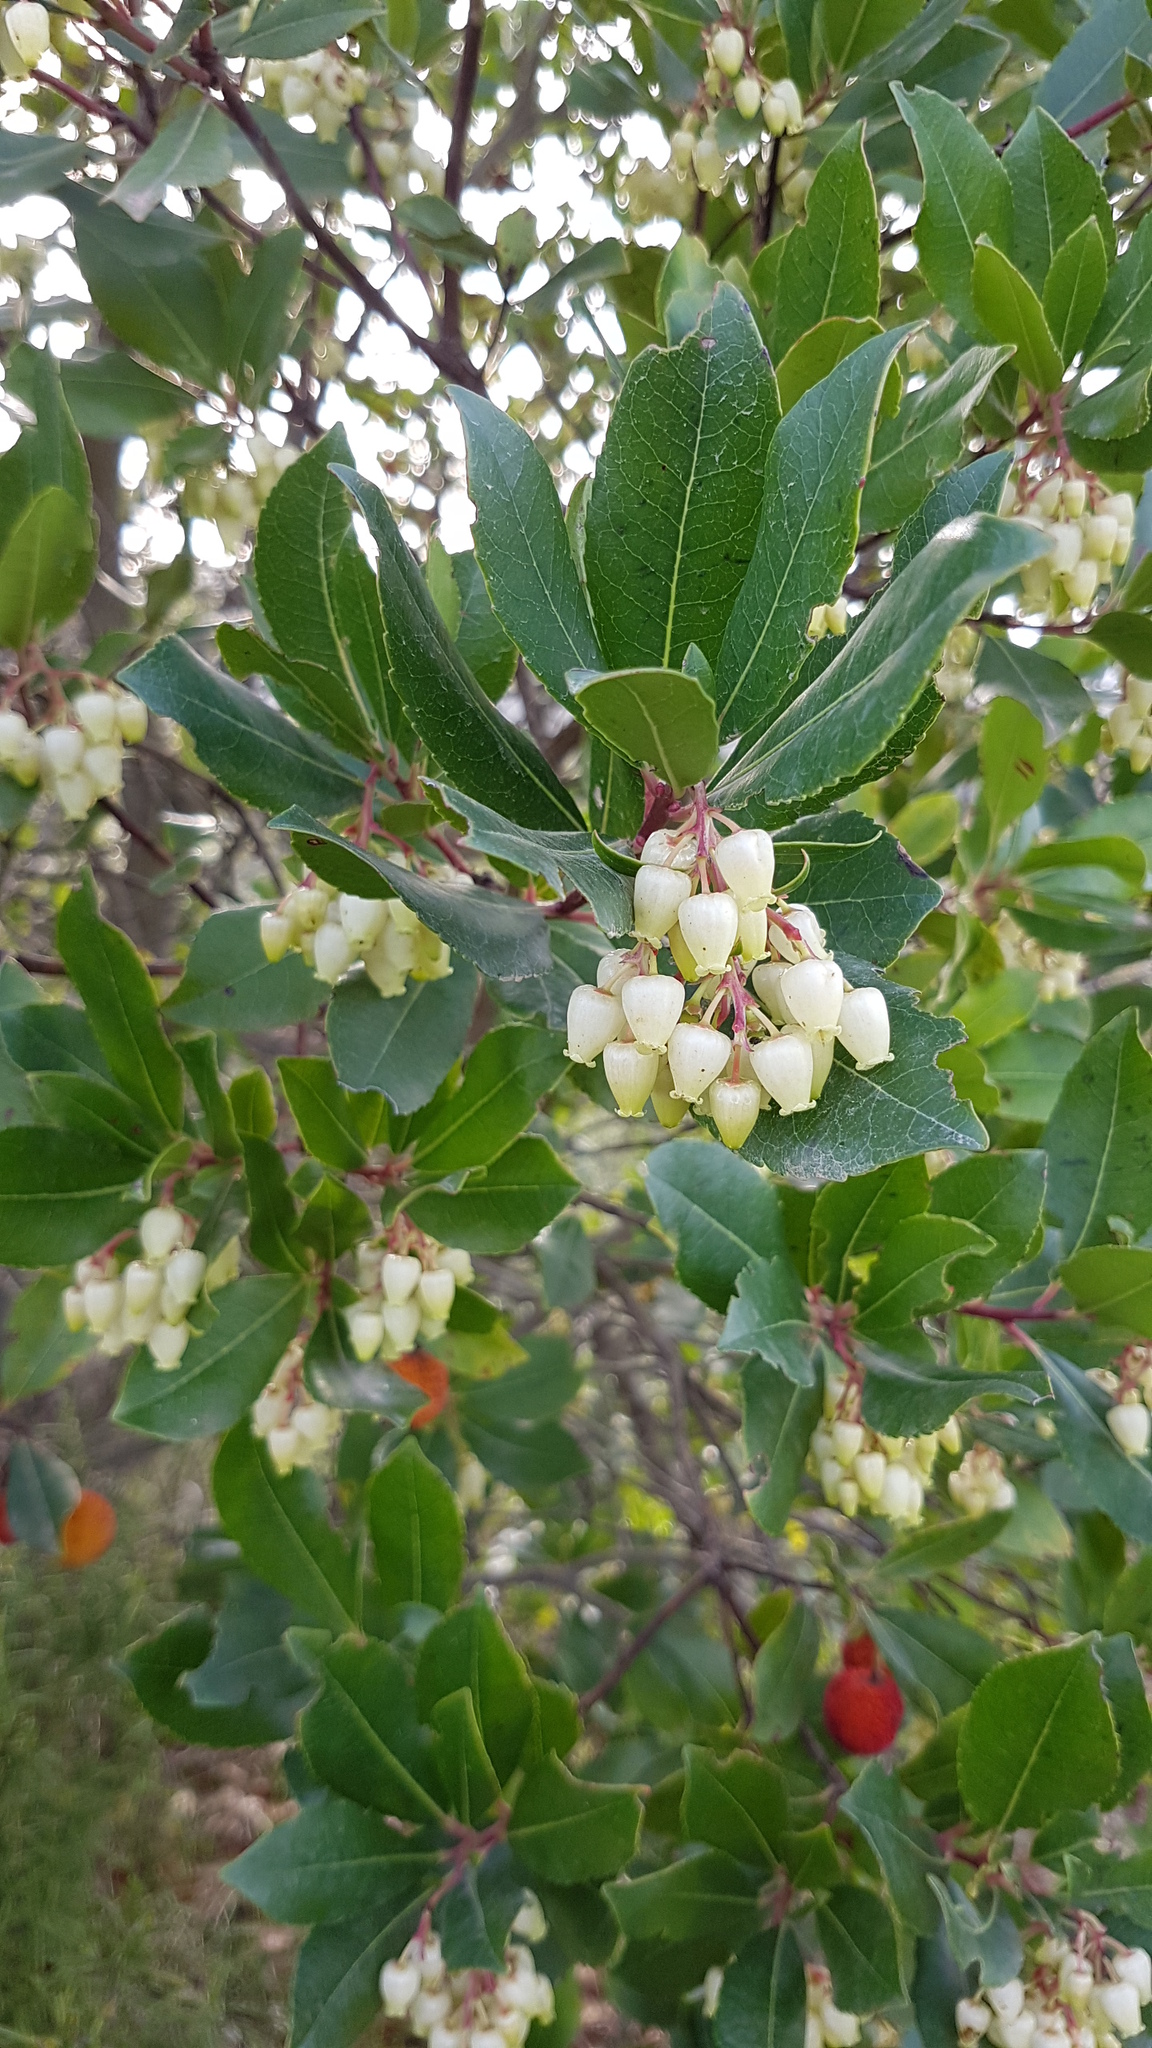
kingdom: Plantae
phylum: Tracheophyta
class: Magnoliopsida
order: Ericales
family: Ericaceae
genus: Arbutus
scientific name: Arbutus unedo
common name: Strawberry-tree
